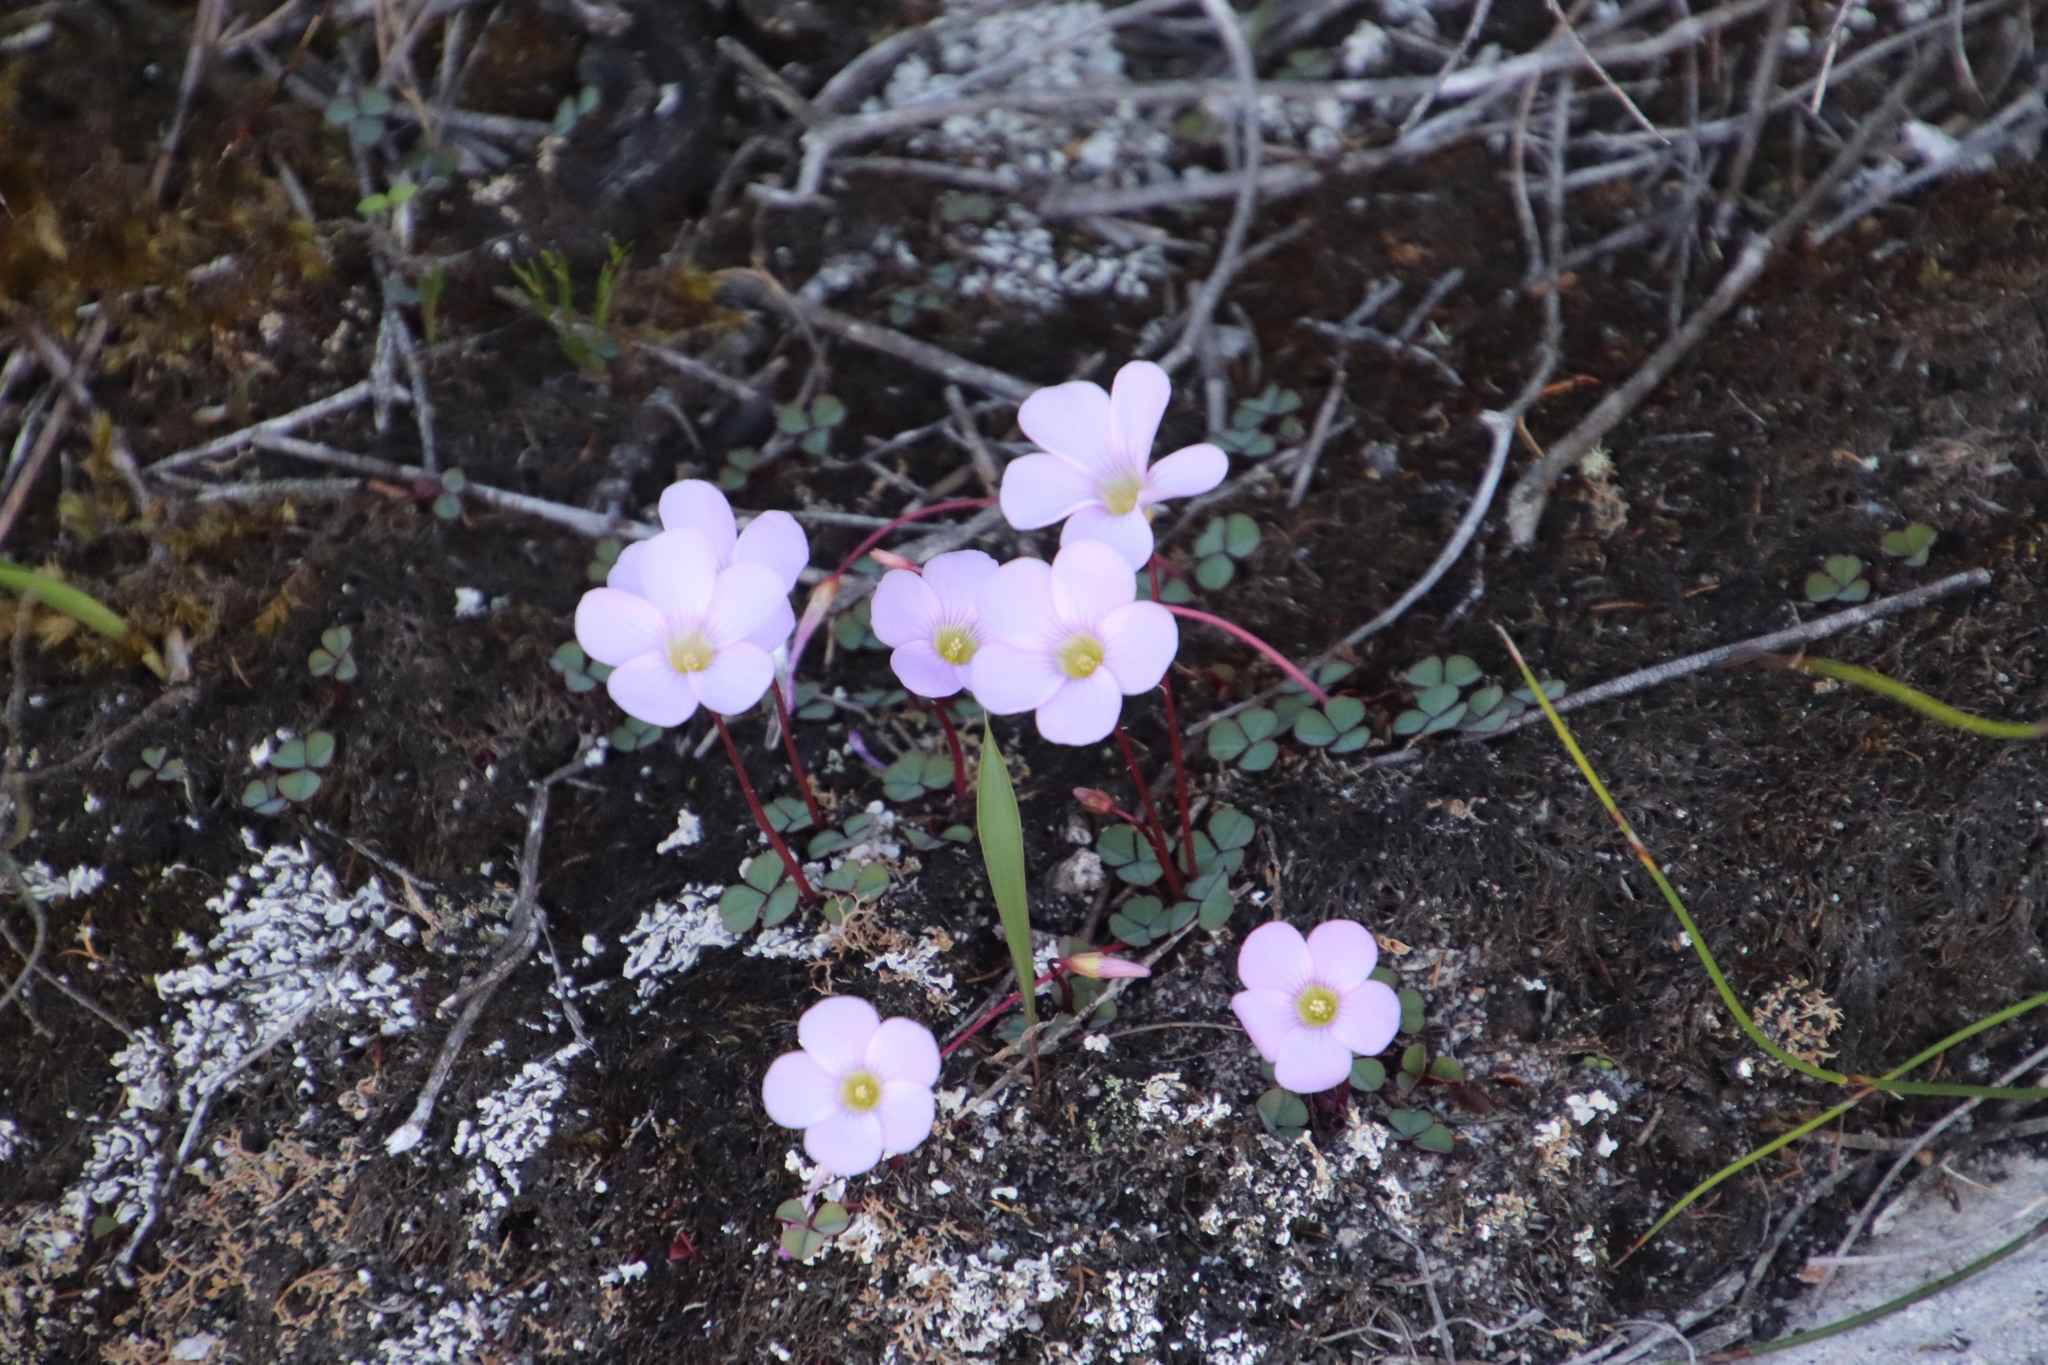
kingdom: Plantae
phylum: Tracheophyta
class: Magnoliopsida
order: Oxalidales
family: Oxalidaceae
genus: Oxalis
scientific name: Oxalis commutata
